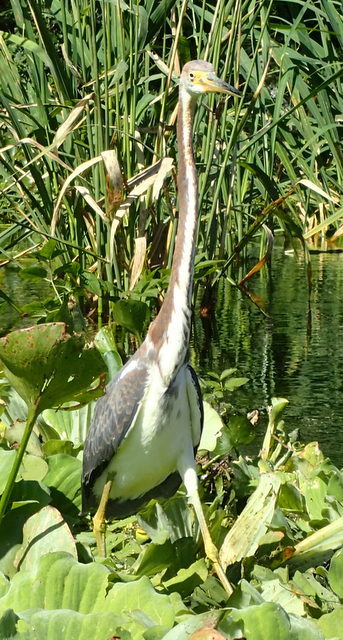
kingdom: Animalia
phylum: Chordata
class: Aves
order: Pelecaniformes
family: Ardeidae
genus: Egretta
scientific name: Egretta tricolor
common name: Tricolored heron
